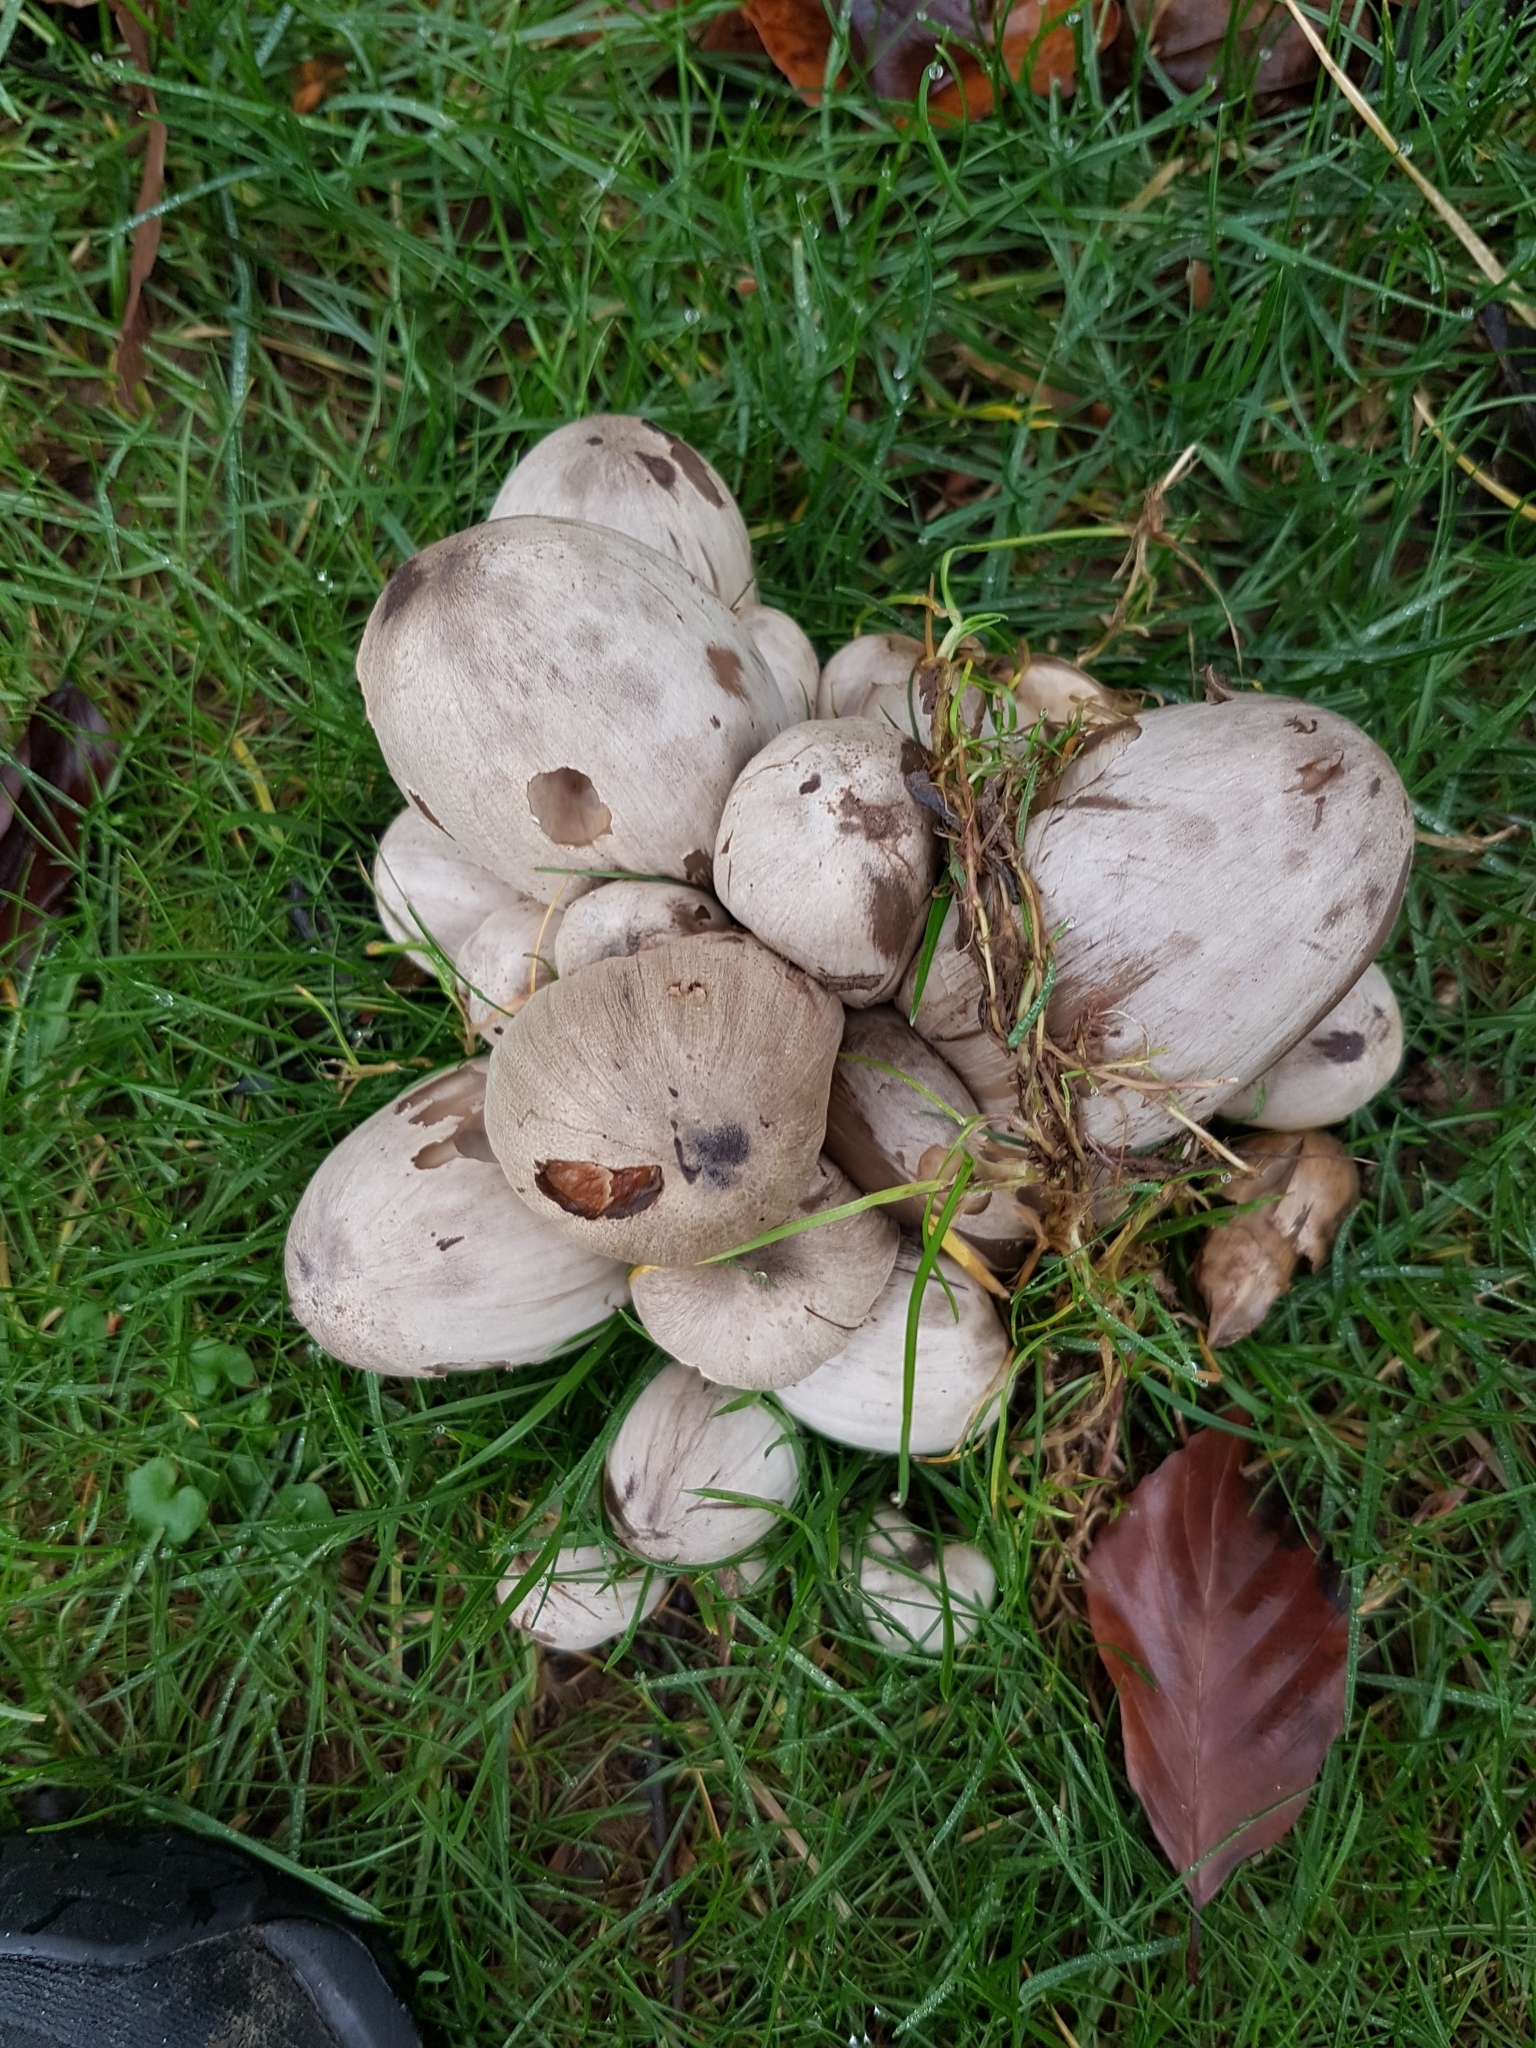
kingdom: Fungi
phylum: Basidiomycota
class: Agaricomycetes
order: Agaricales
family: Psathyrellaceae
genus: Coprinopsis
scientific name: Coprinopsis atramentaria
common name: Common ink-cap
